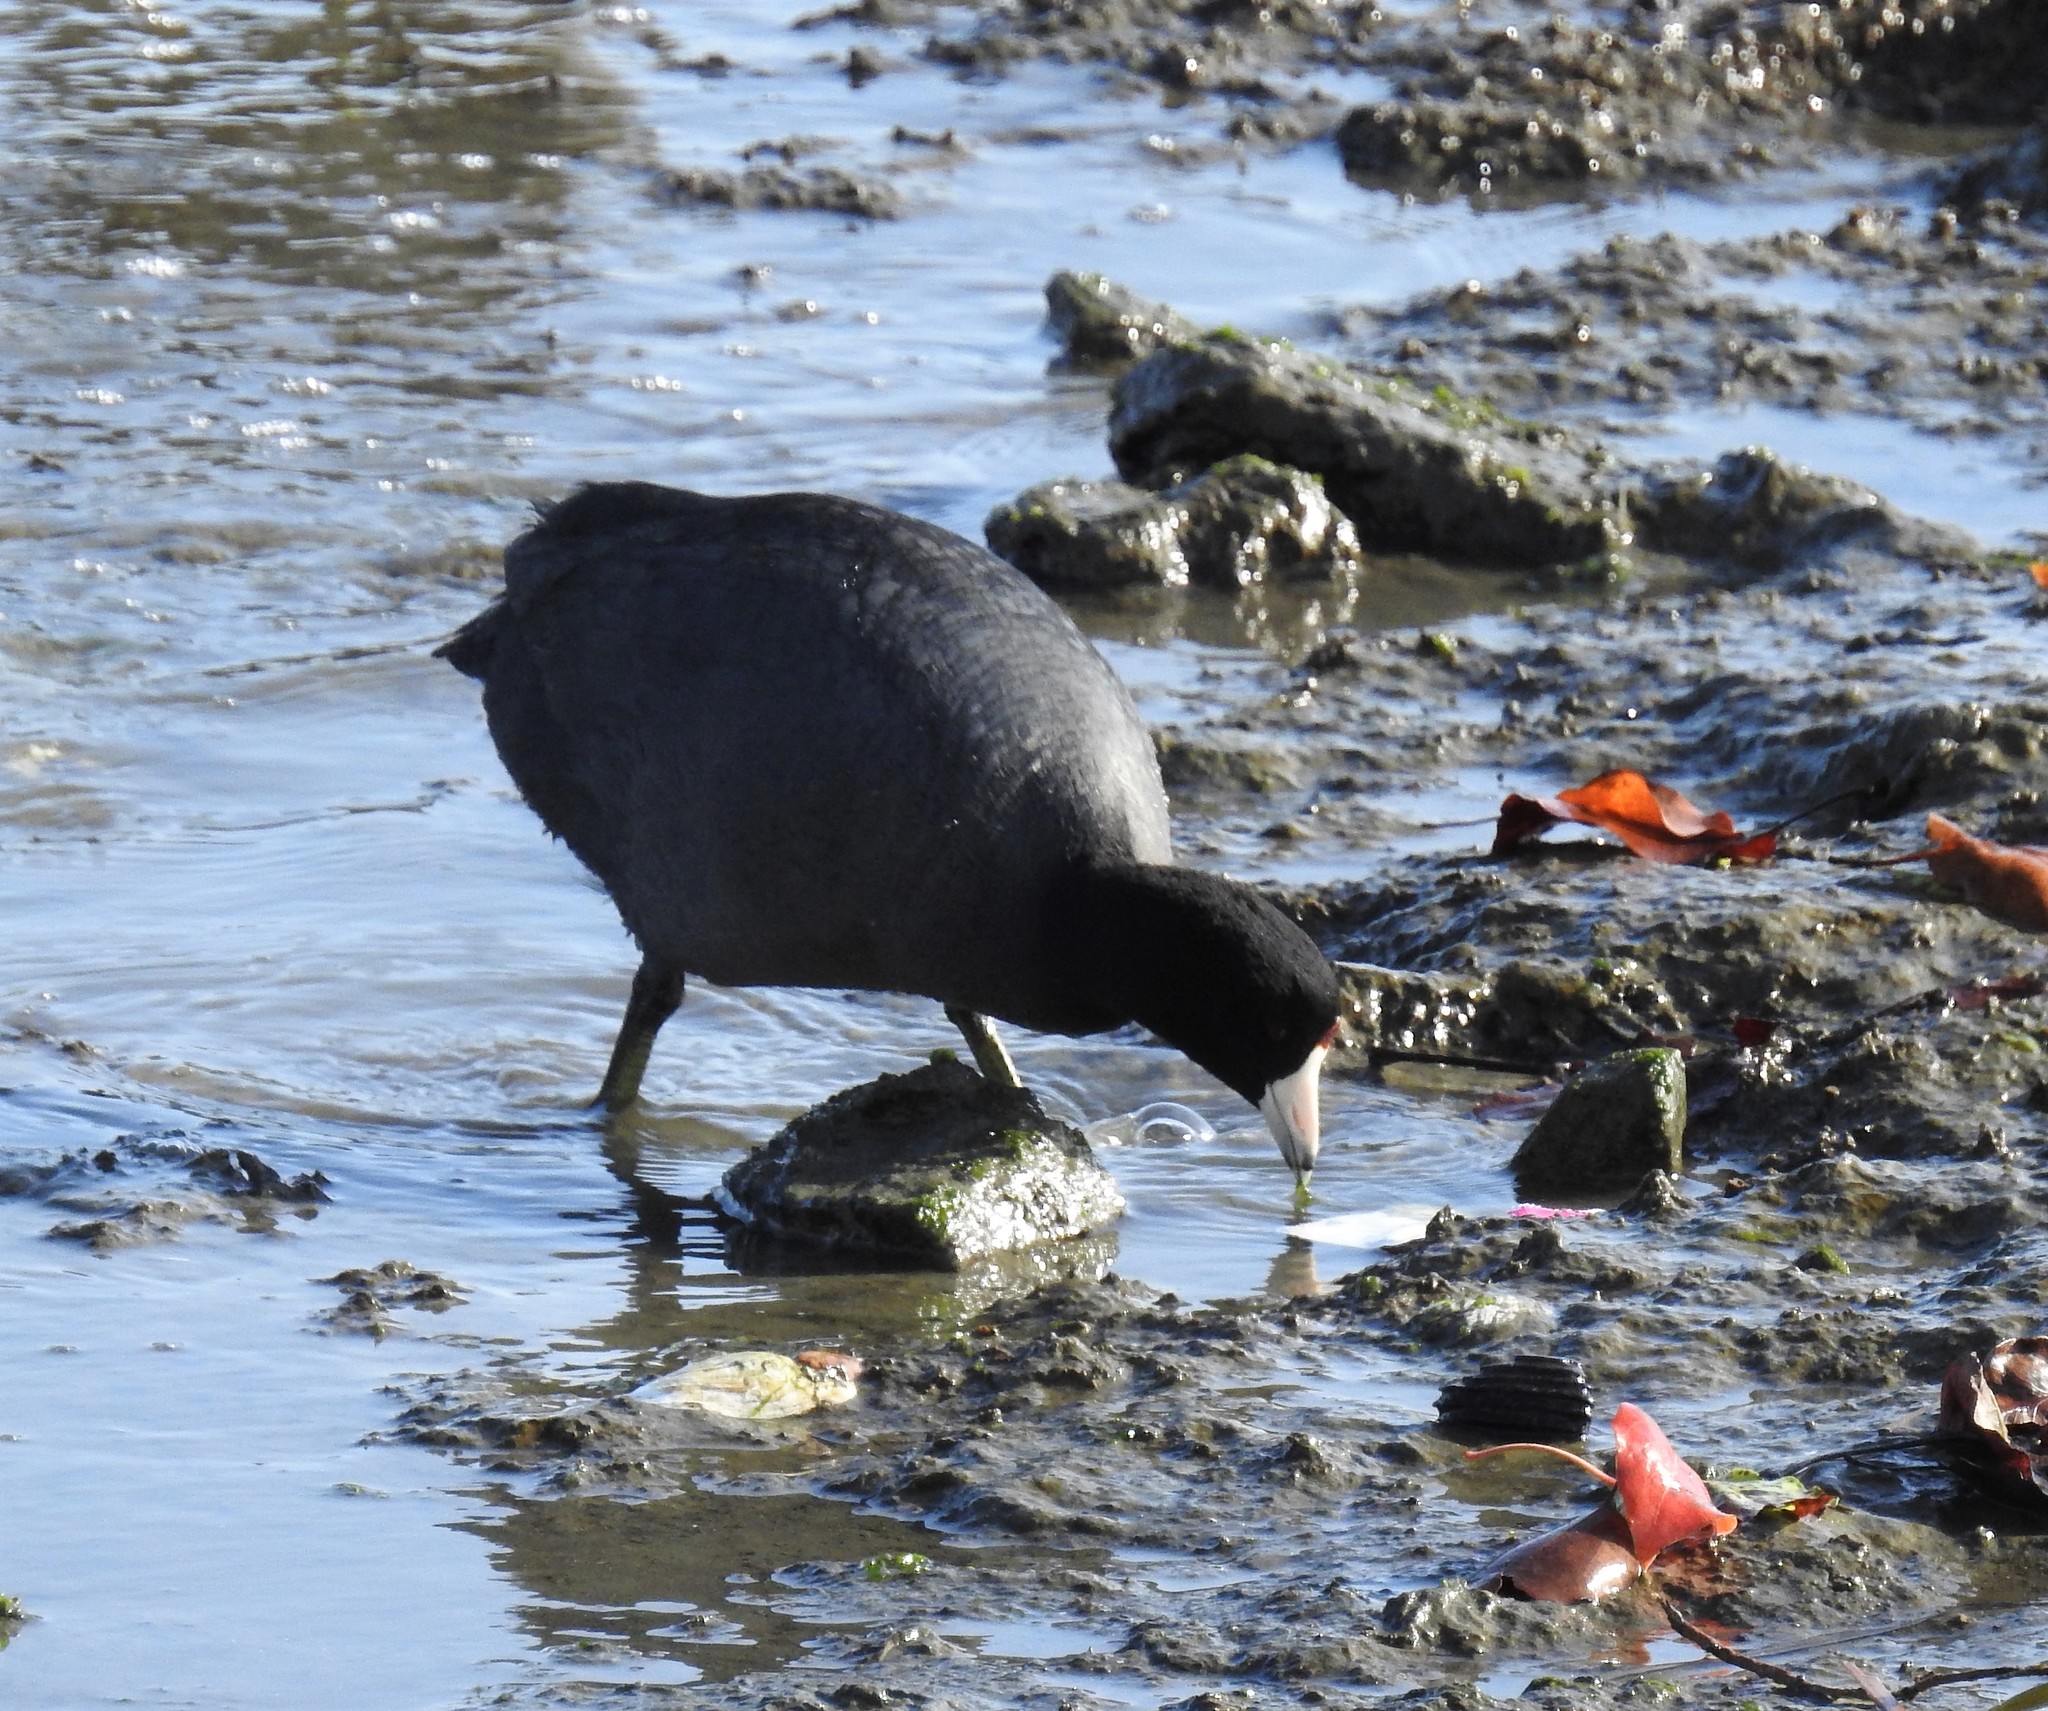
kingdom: Animalia
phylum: Chordata
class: Aves
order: Gruiformes
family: Rallidae
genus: Fulica
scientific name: Fulica americana
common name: American coot
